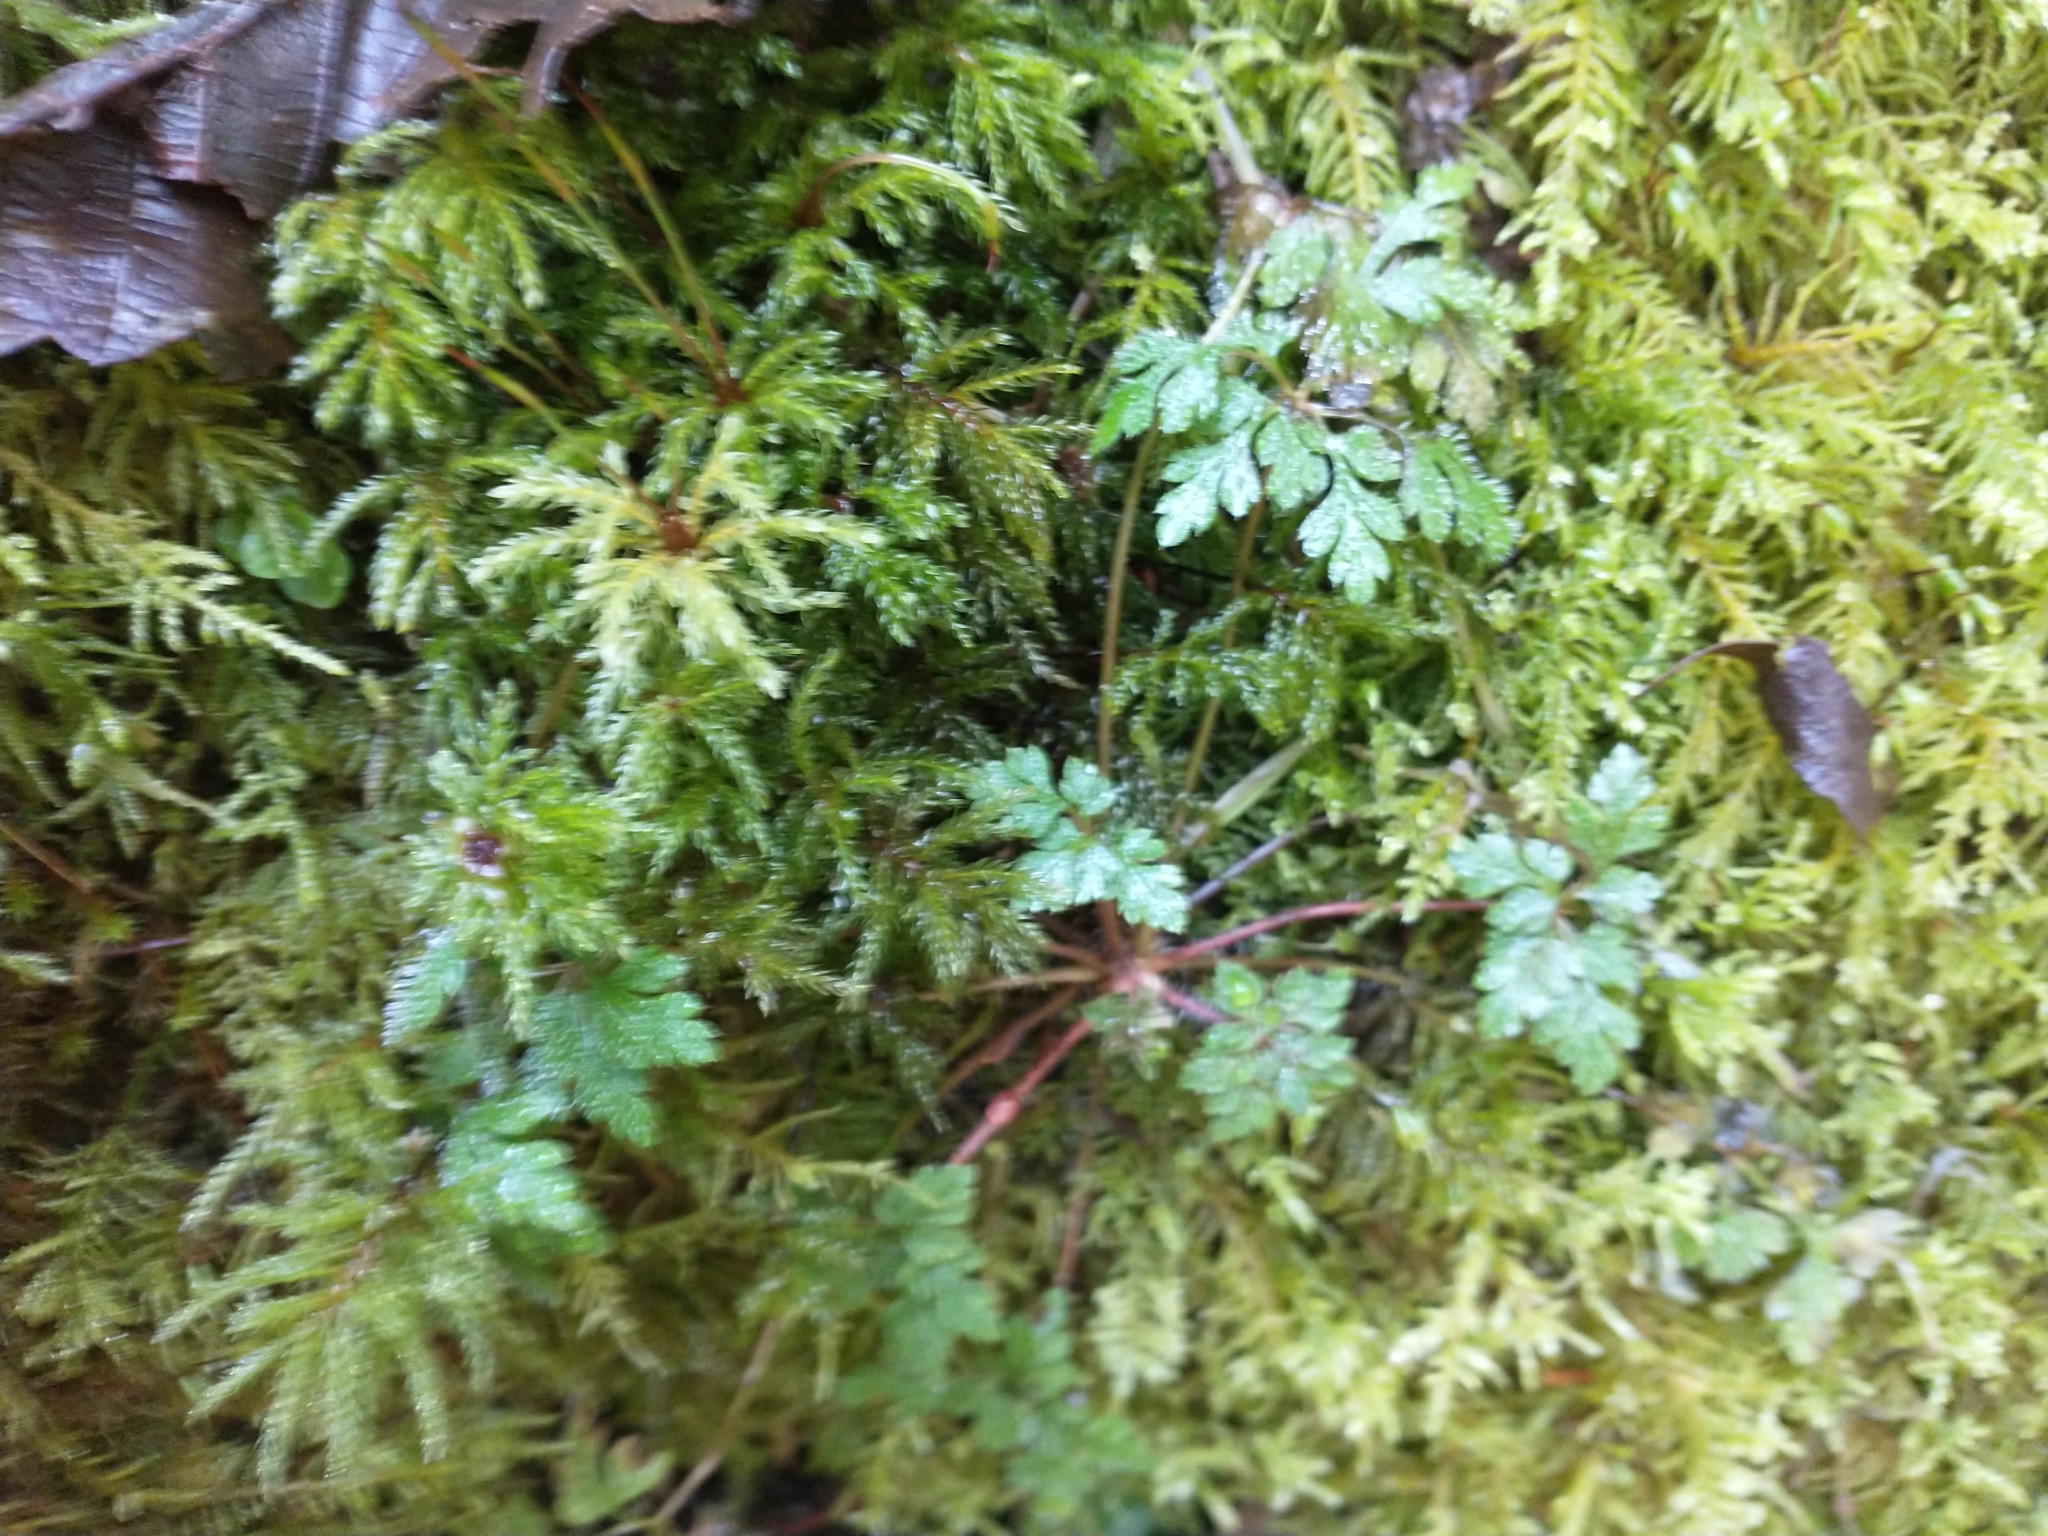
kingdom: Plantae
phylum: Tracheophyta
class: Magnoliopsida
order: Geraniales
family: Geraniaceae
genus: Geranium
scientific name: Geranium robertianum
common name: Herb-robert
